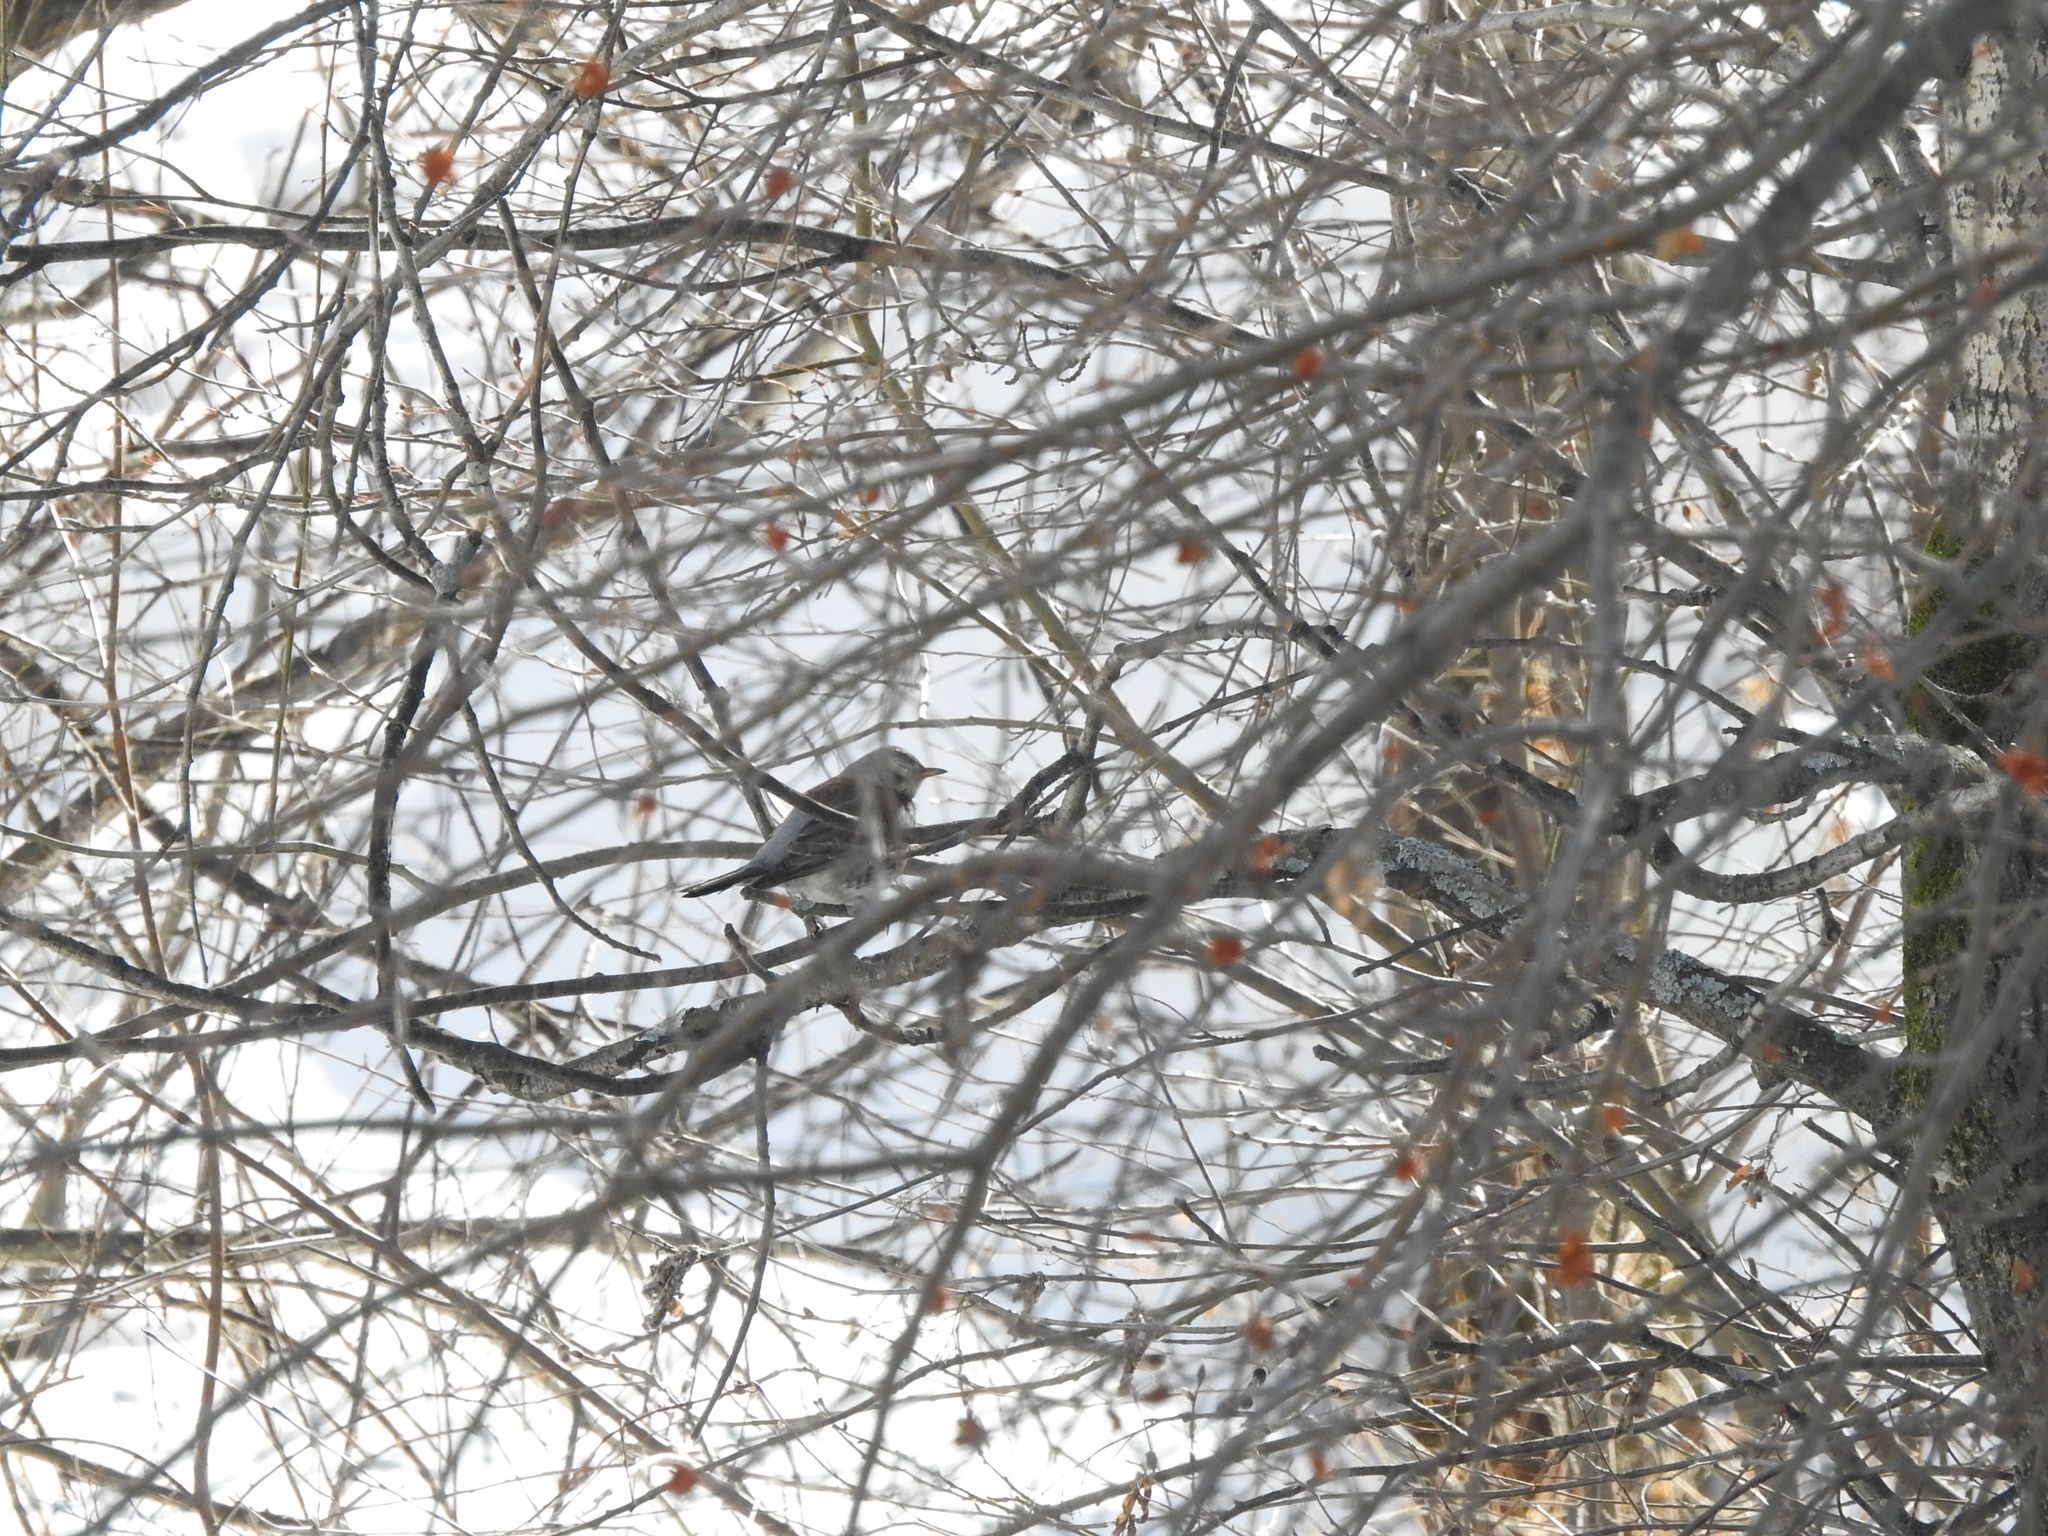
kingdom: Animalia
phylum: Chordata
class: Aves
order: Passeriformes
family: Turdidae
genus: Turdus
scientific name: Turdus pilaris
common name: Fieldfare
